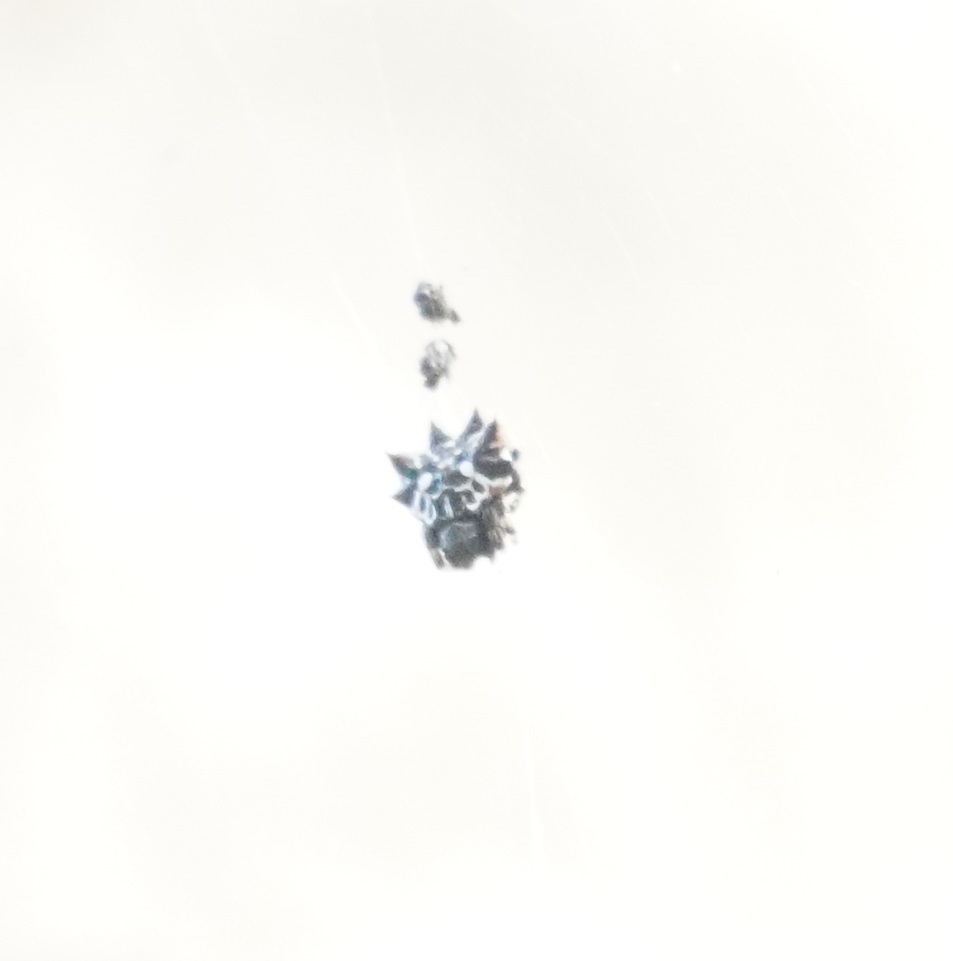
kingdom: Animalia
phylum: Arthropoda
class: Arachnida
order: Araneae
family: Araneidae
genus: Gasteracantha
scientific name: Gasteracantha sacerdotalis
